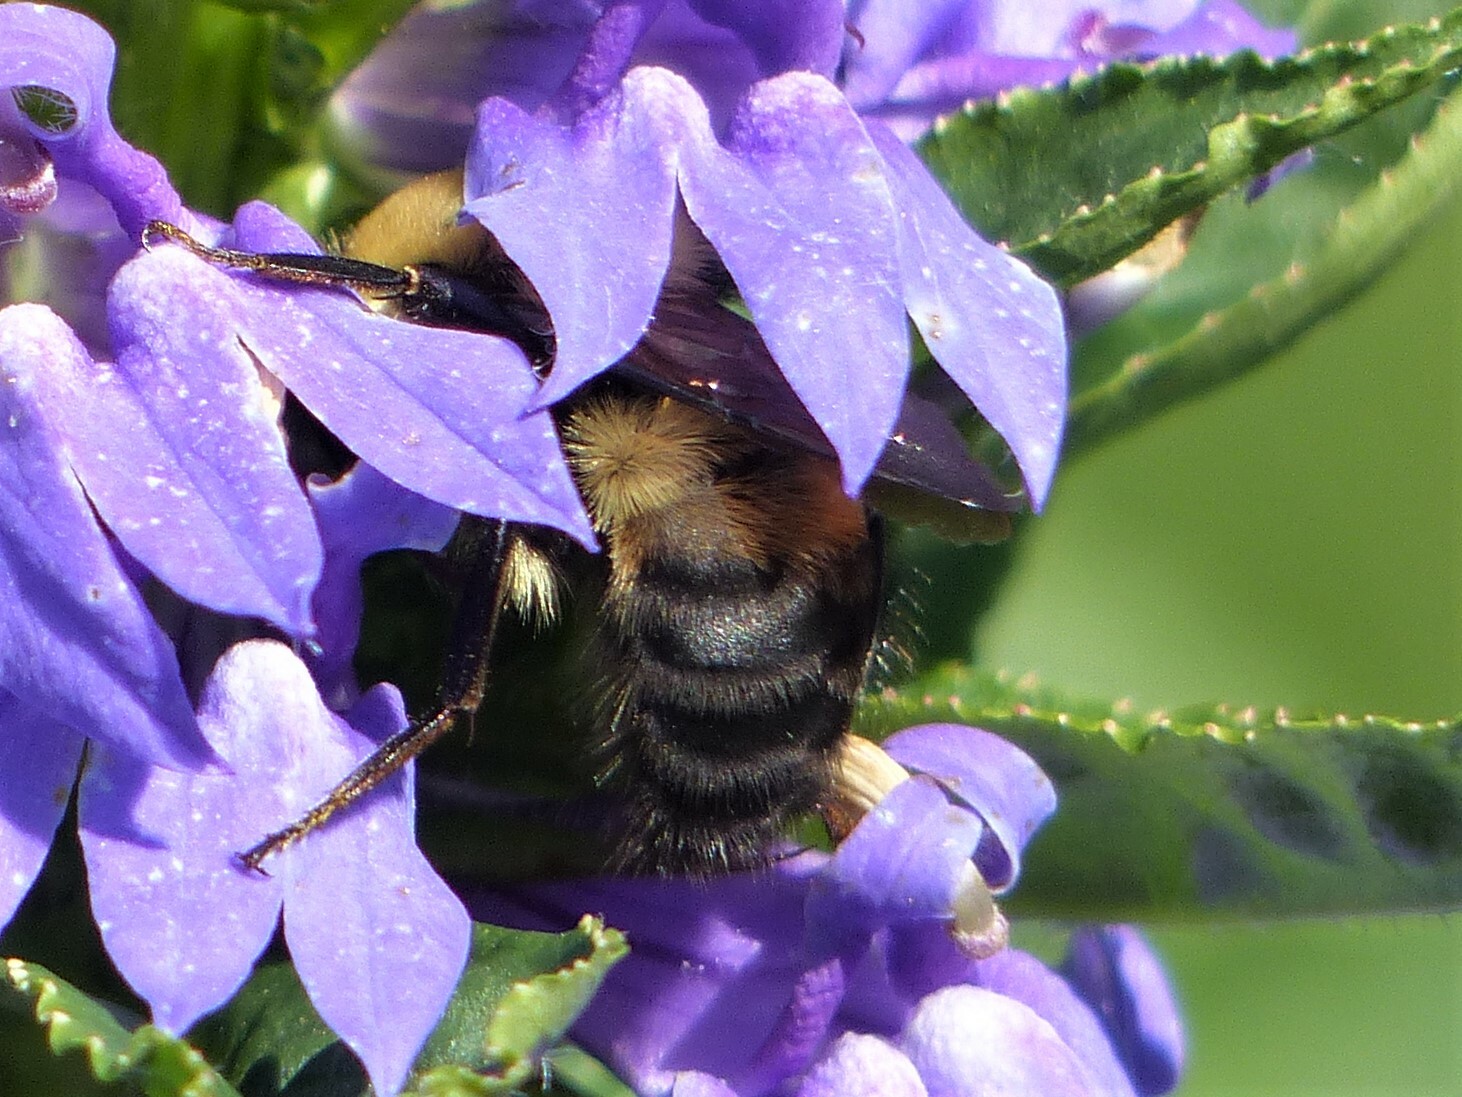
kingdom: Animalia
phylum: Arthropoda
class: Insecta
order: Hymenoptera
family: Apidae
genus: Bombus
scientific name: Bombus griseocollis
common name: Brown-belted bumble bee
